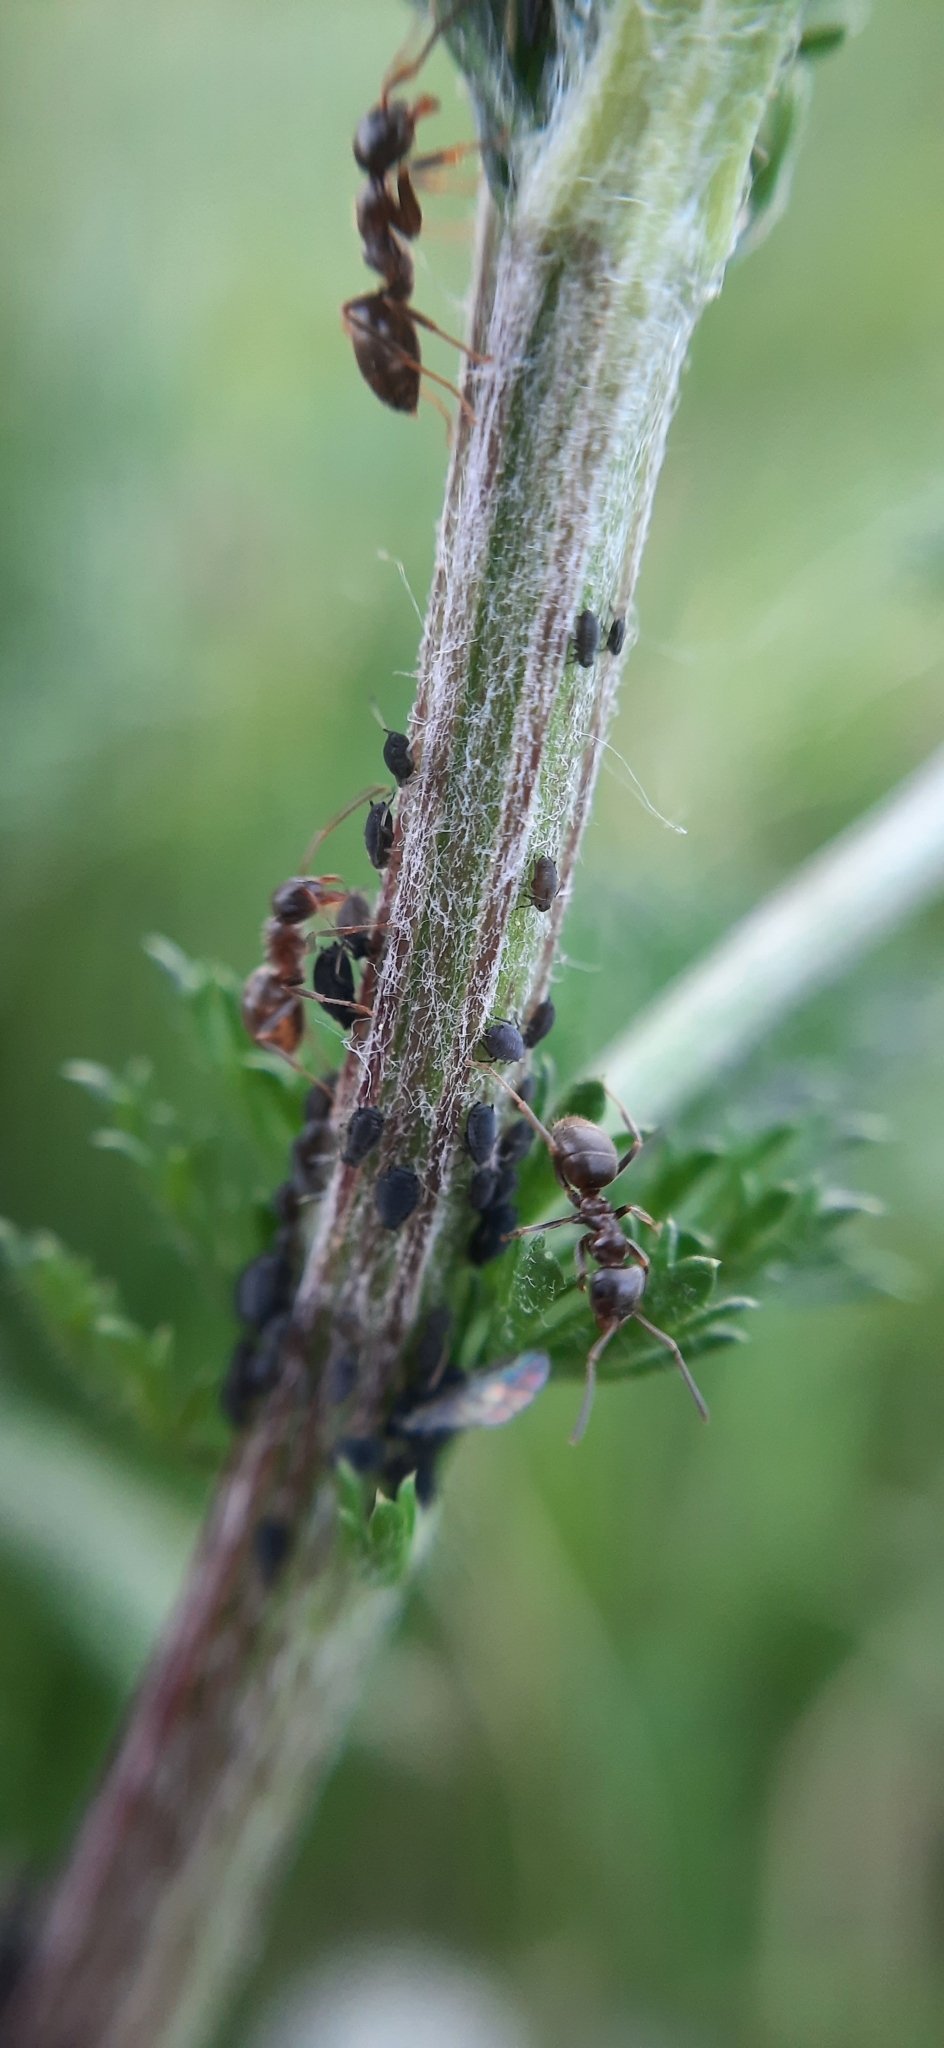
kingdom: Animalia
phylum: Arthropoda
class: Insecta
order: Hymenoptera
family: Formicidae
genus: Lasius
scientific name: Lasius
